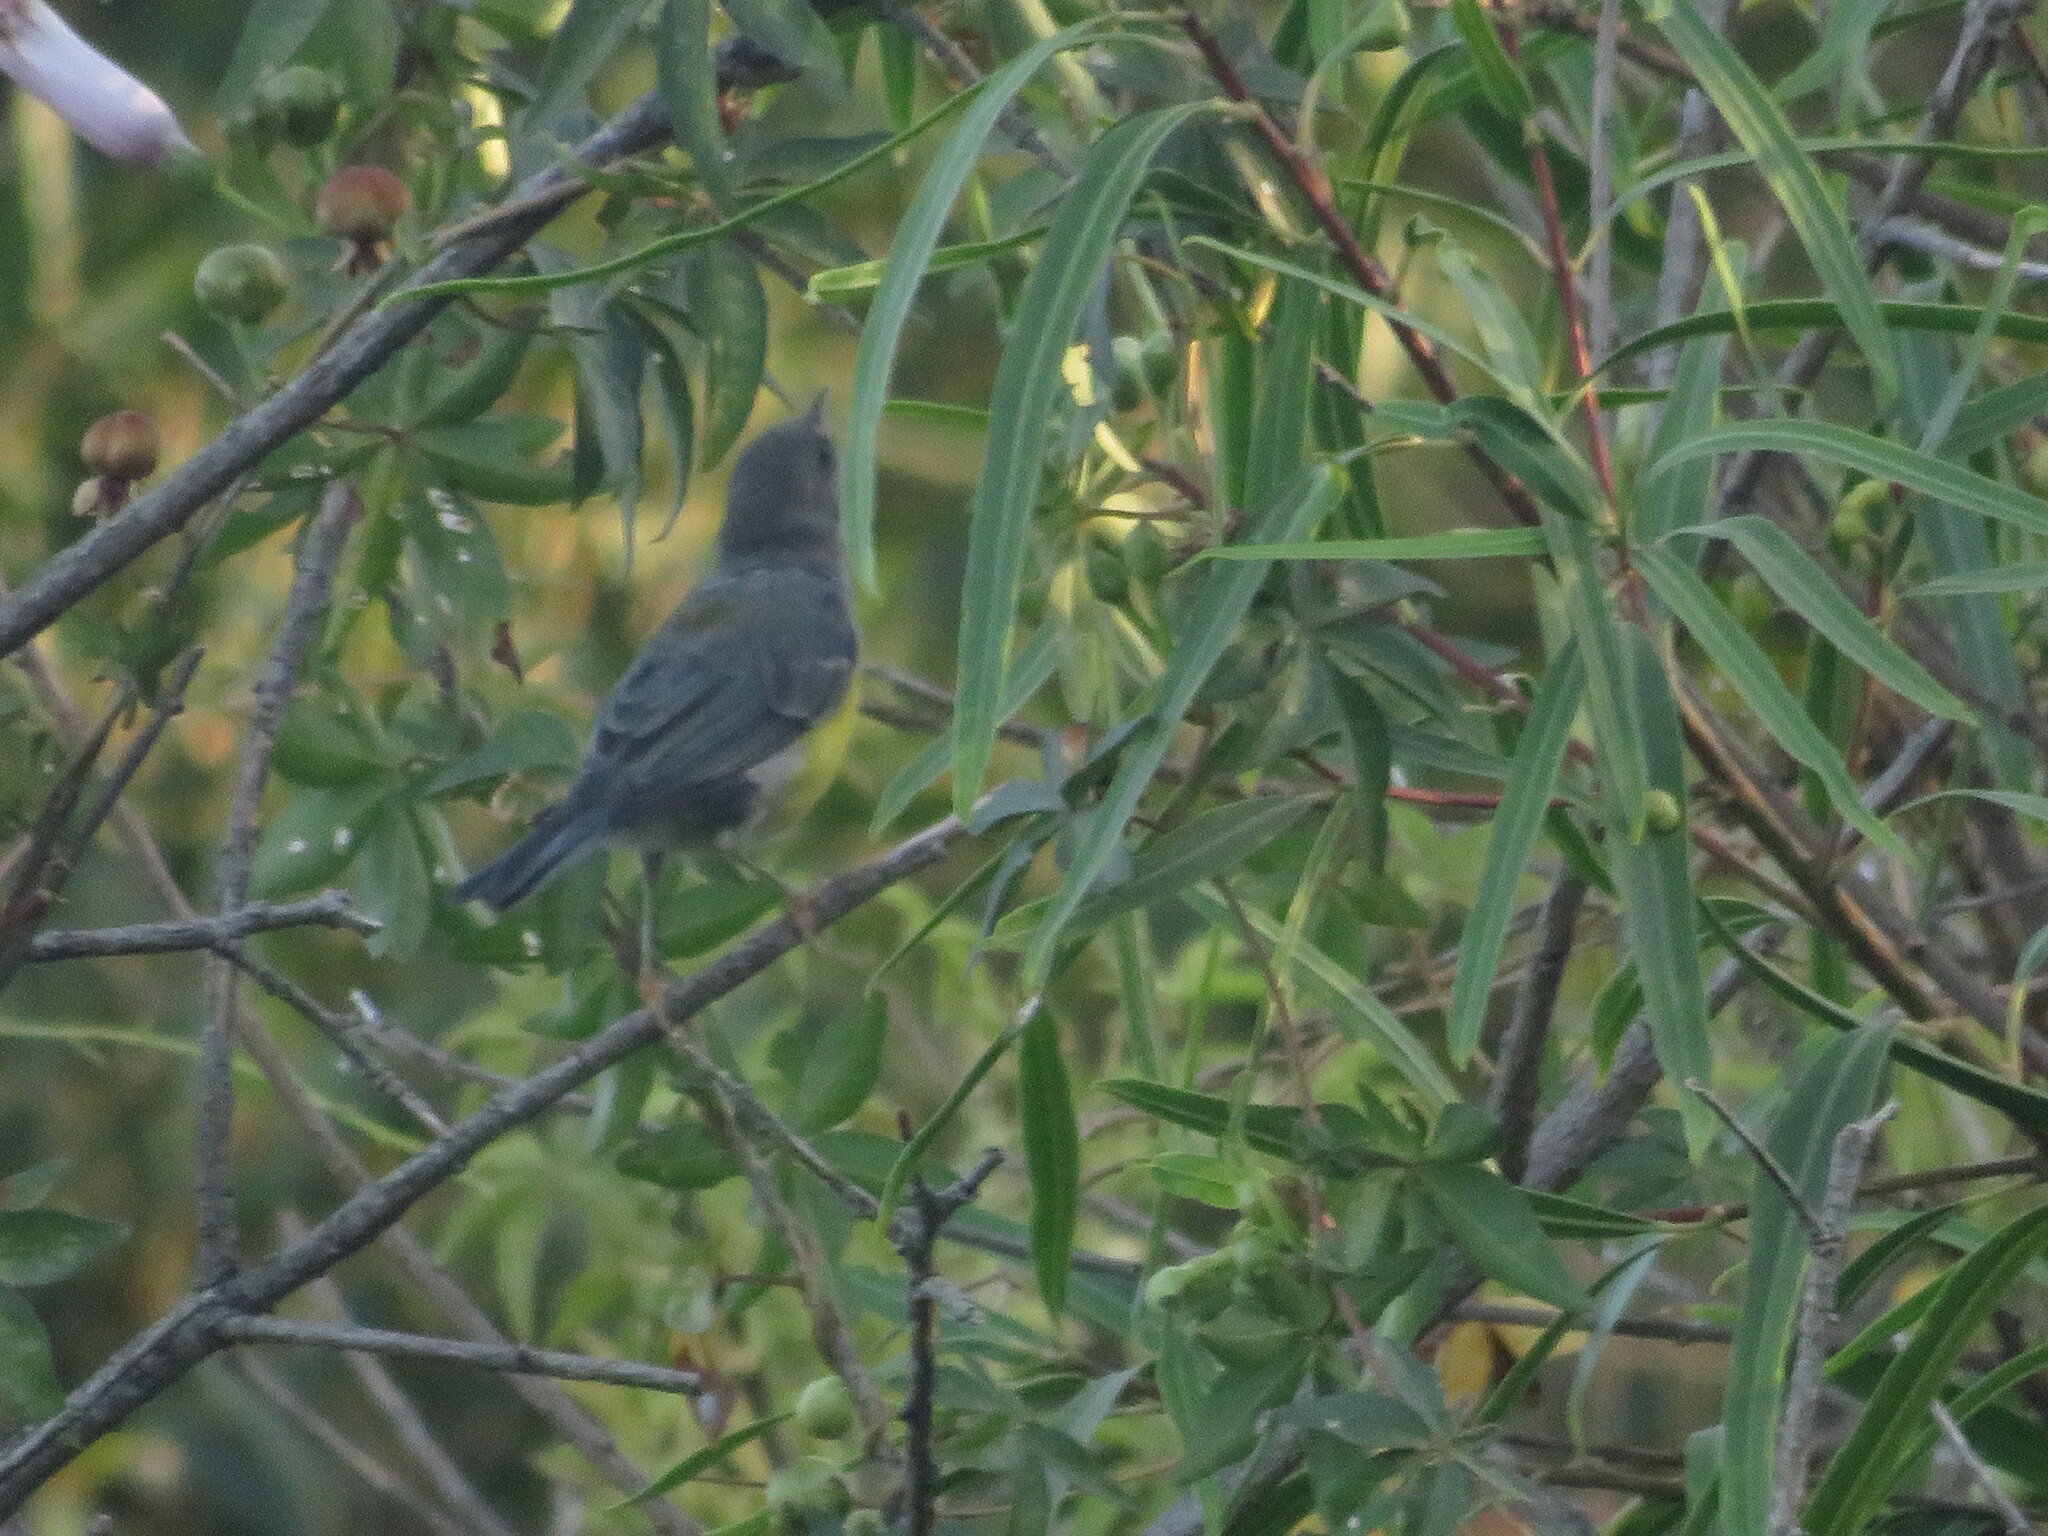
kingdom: Animalia
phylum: Chordata
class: Aves
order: Passeriformes
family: Parulidae
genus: Setophaga
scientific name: Setophaga pitiayumi
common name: Tropical parula
